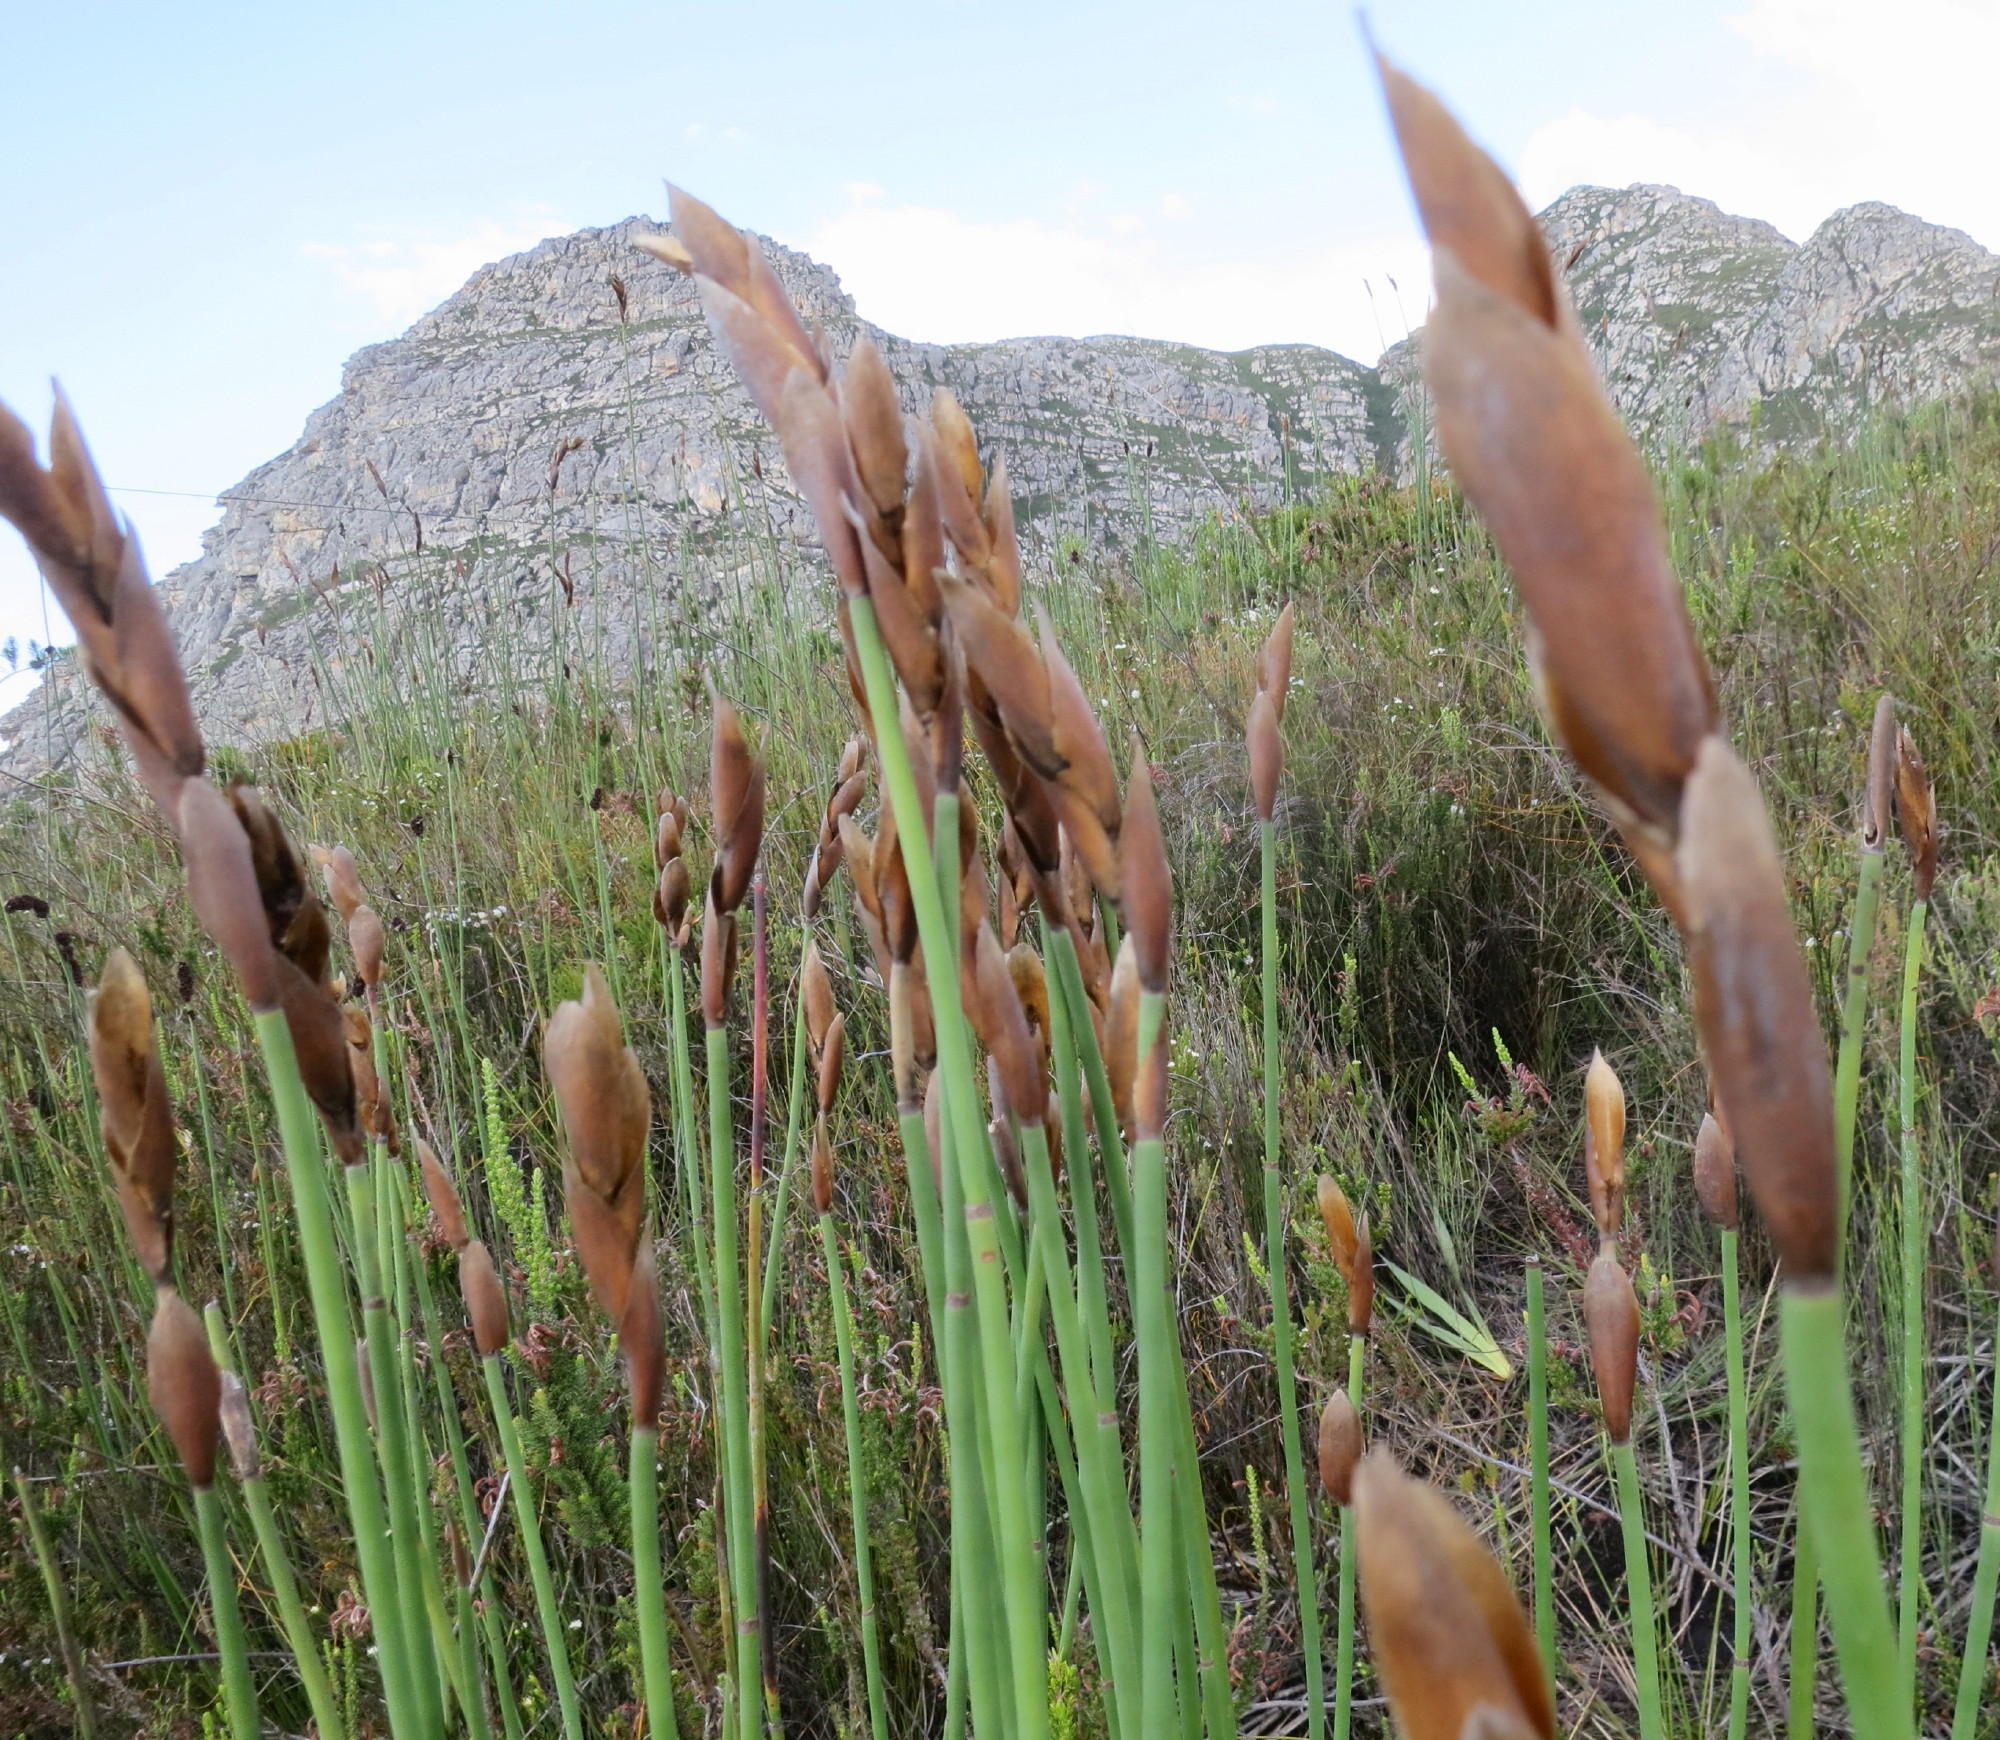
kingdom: Plantae
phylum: Tracheophyta
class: Liliopsida
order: Poales
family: Restionaceae
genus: Elegia
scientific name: Elegia thyrsoidea
